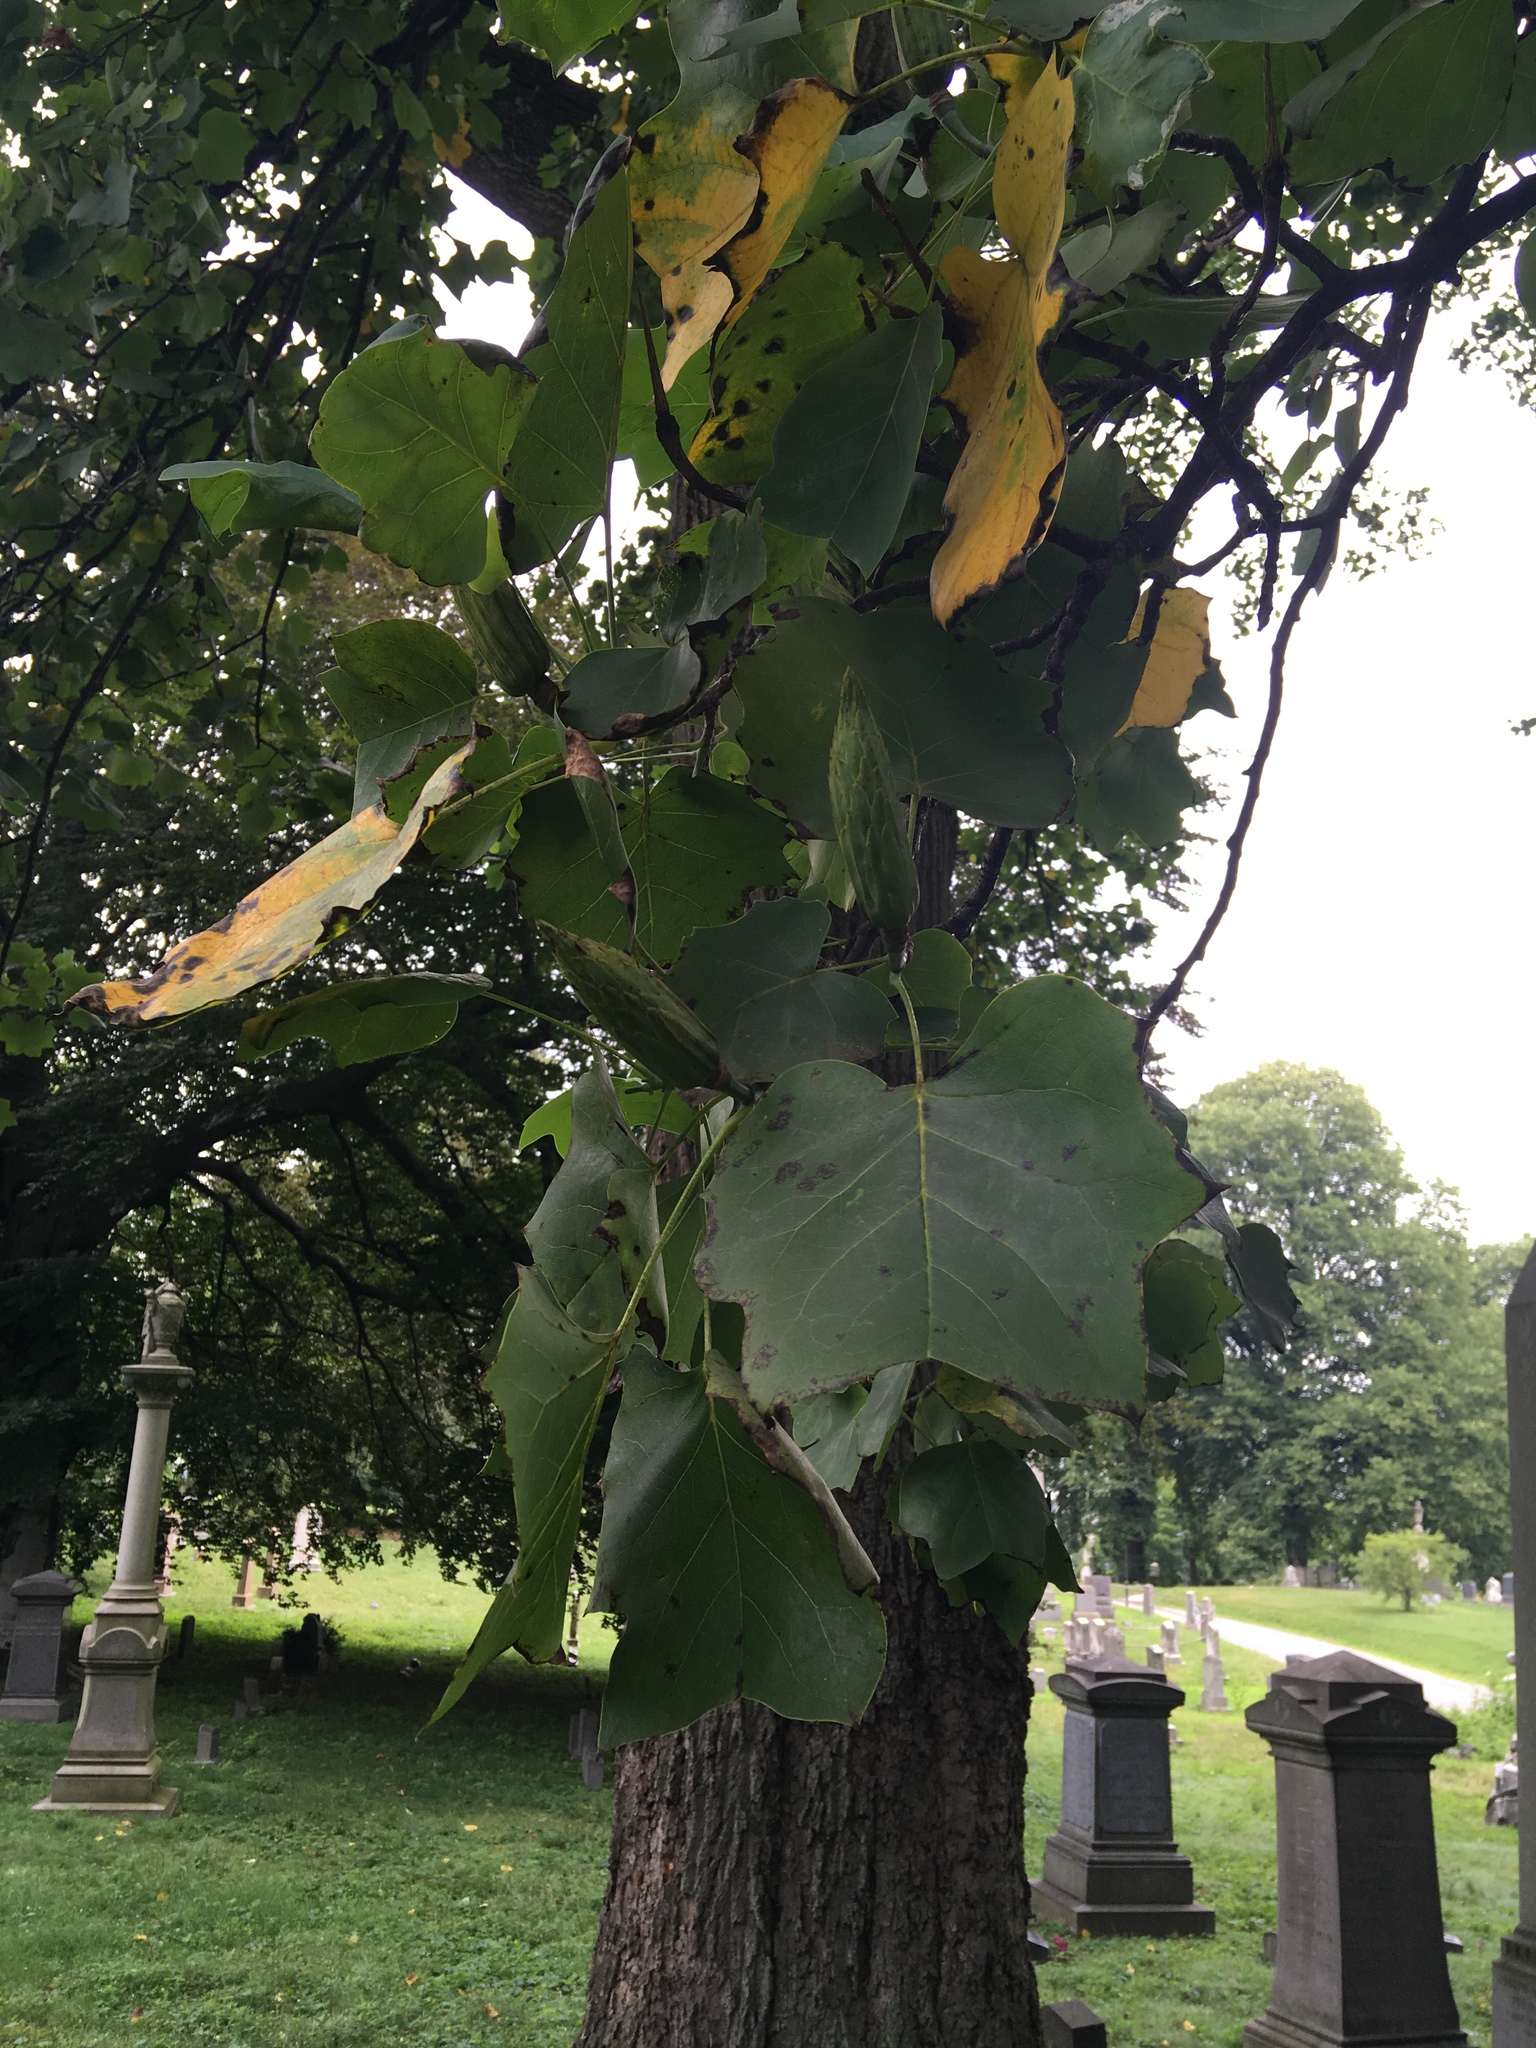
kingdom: Plantae
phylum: Tracheophyta
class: Magnoliopsida
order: Magnoliales
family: Magnoliaceae
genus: Liriodendron
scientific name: Liriodendron tulipifera
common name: Tulip tree
